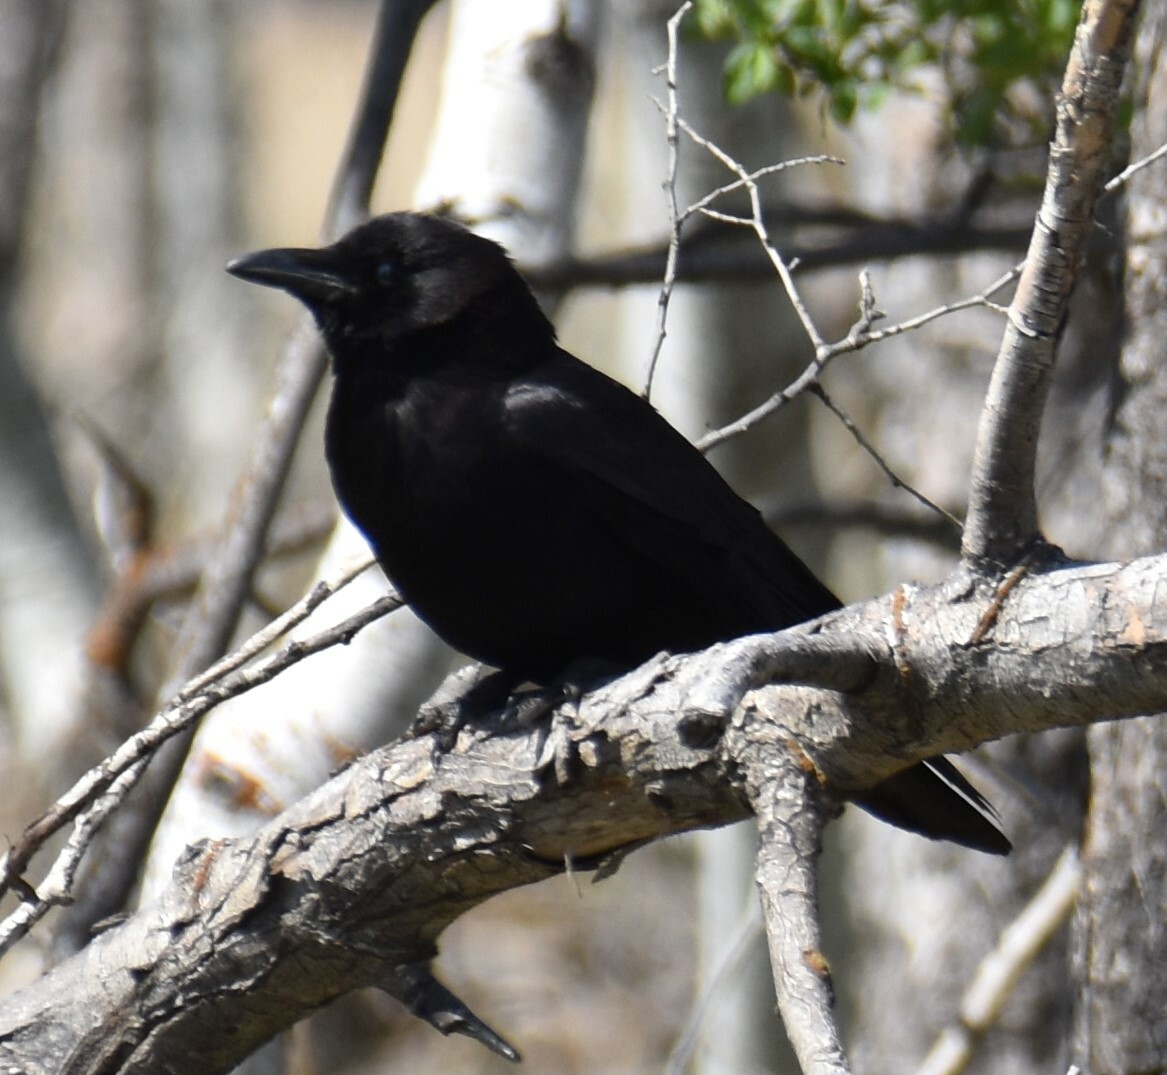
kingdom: Animalia
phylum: Chordata
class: Aves
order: Passeriformes
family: Corvidae
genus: Corvus
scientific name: Corvus brachyrhynchos
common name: American crow
